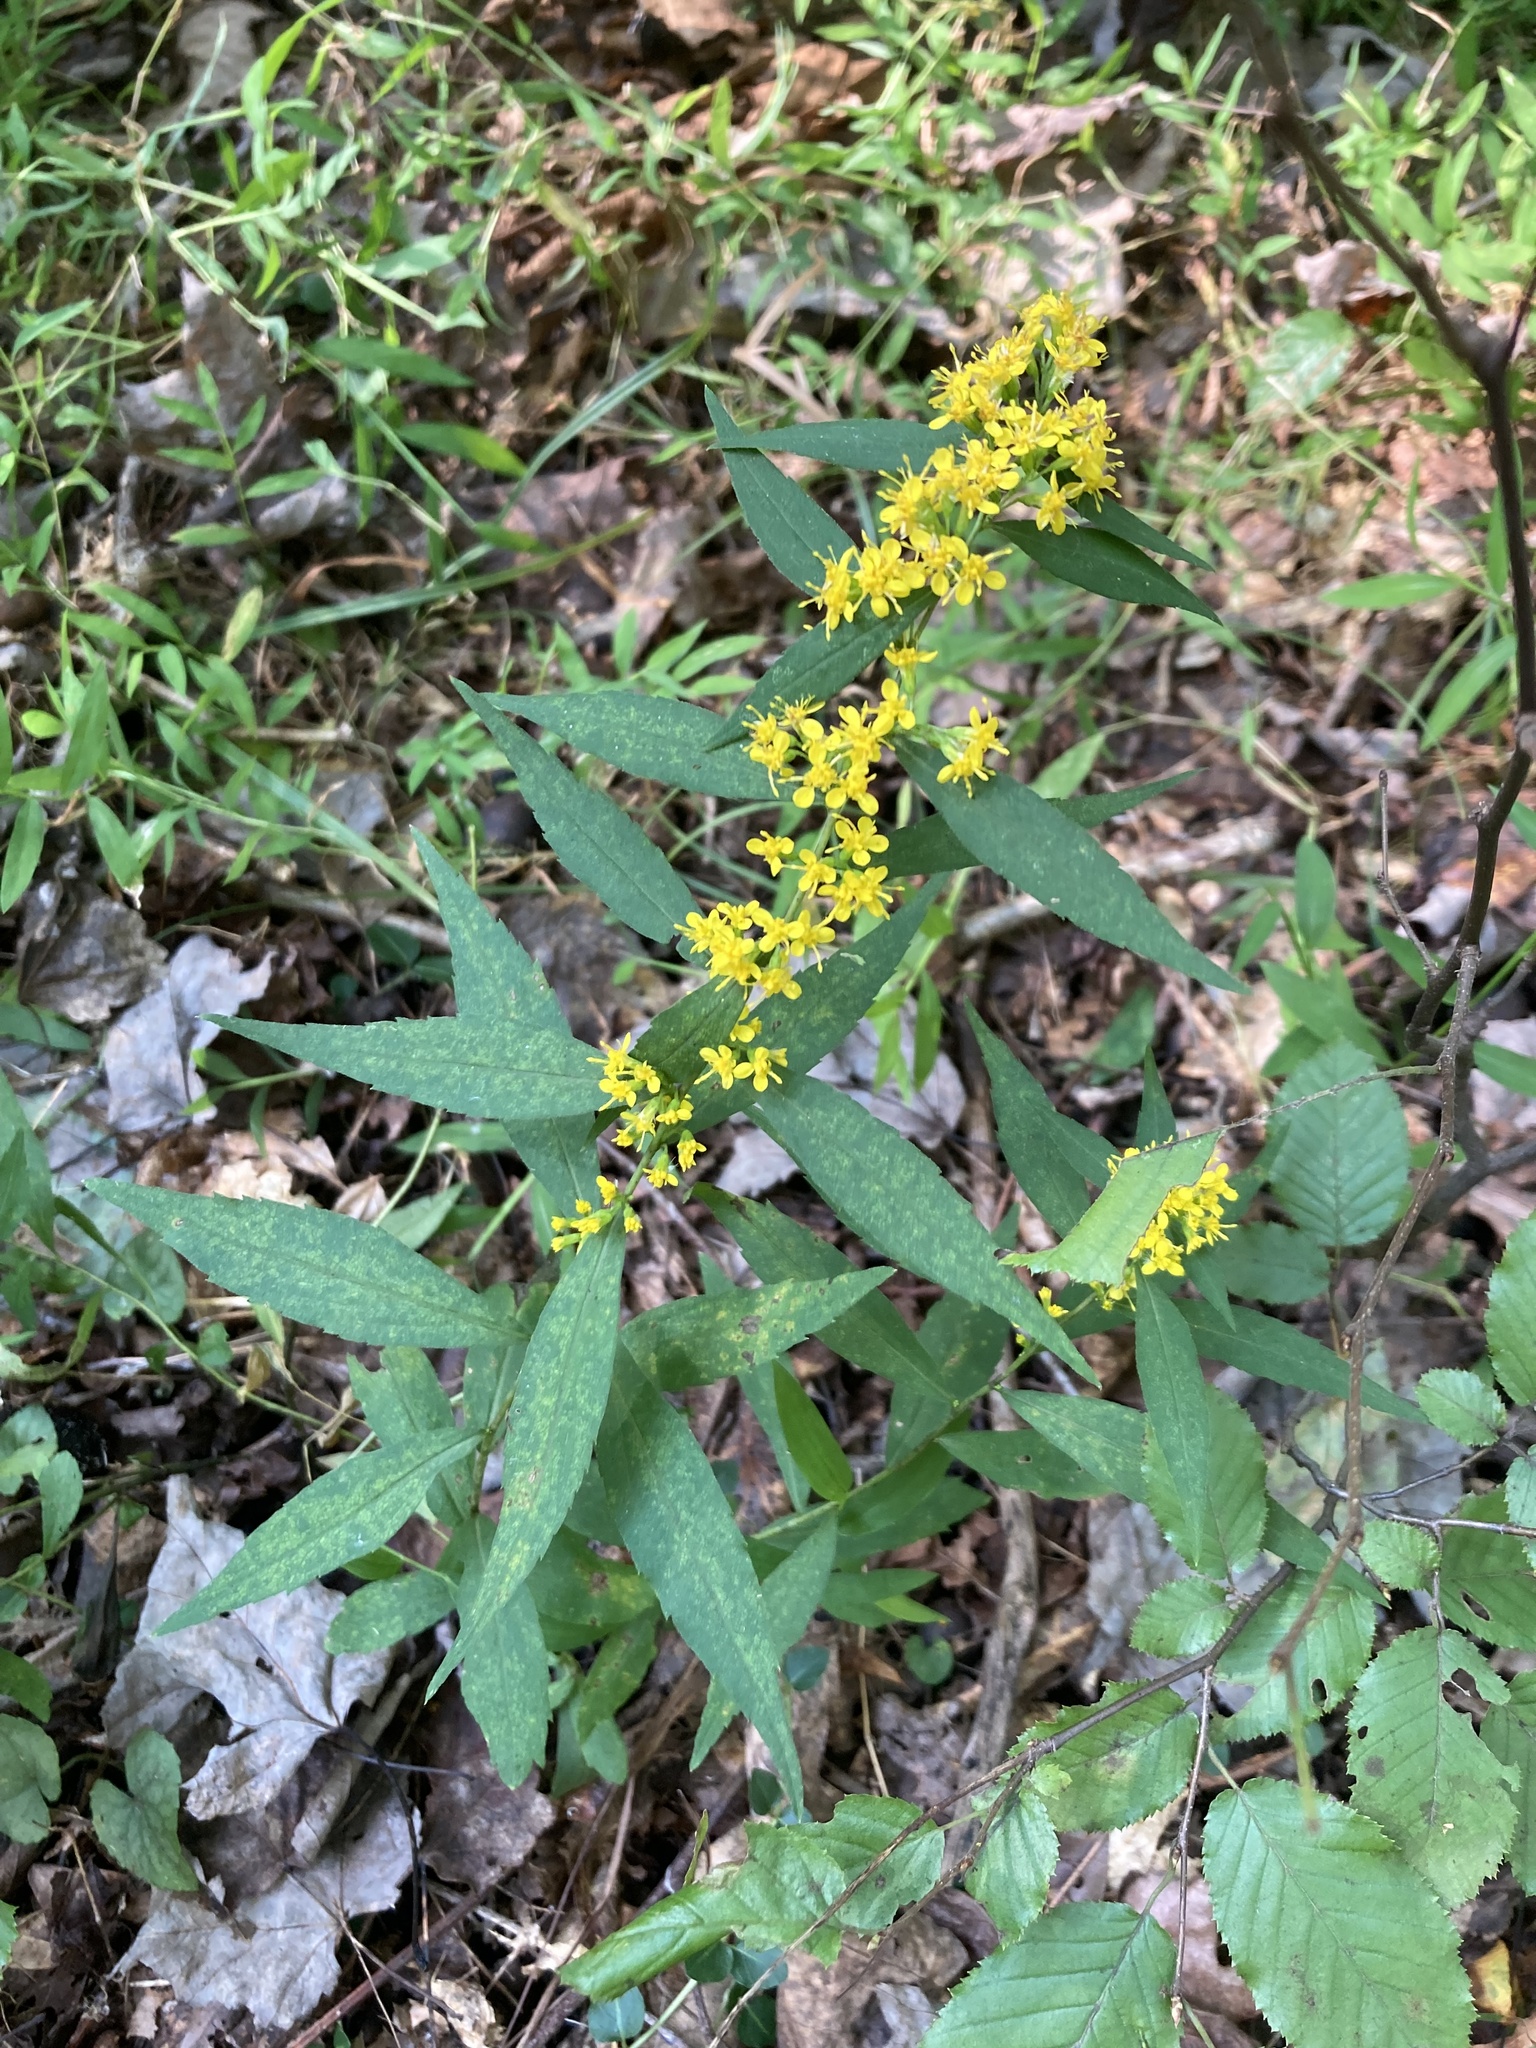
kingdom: Plantae
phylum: Tracheophyta
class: Magnoliopsida
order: Asterales
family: Asteraceae
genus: Solidago
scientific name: Solidago caesia
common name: Woodland goldenrod
